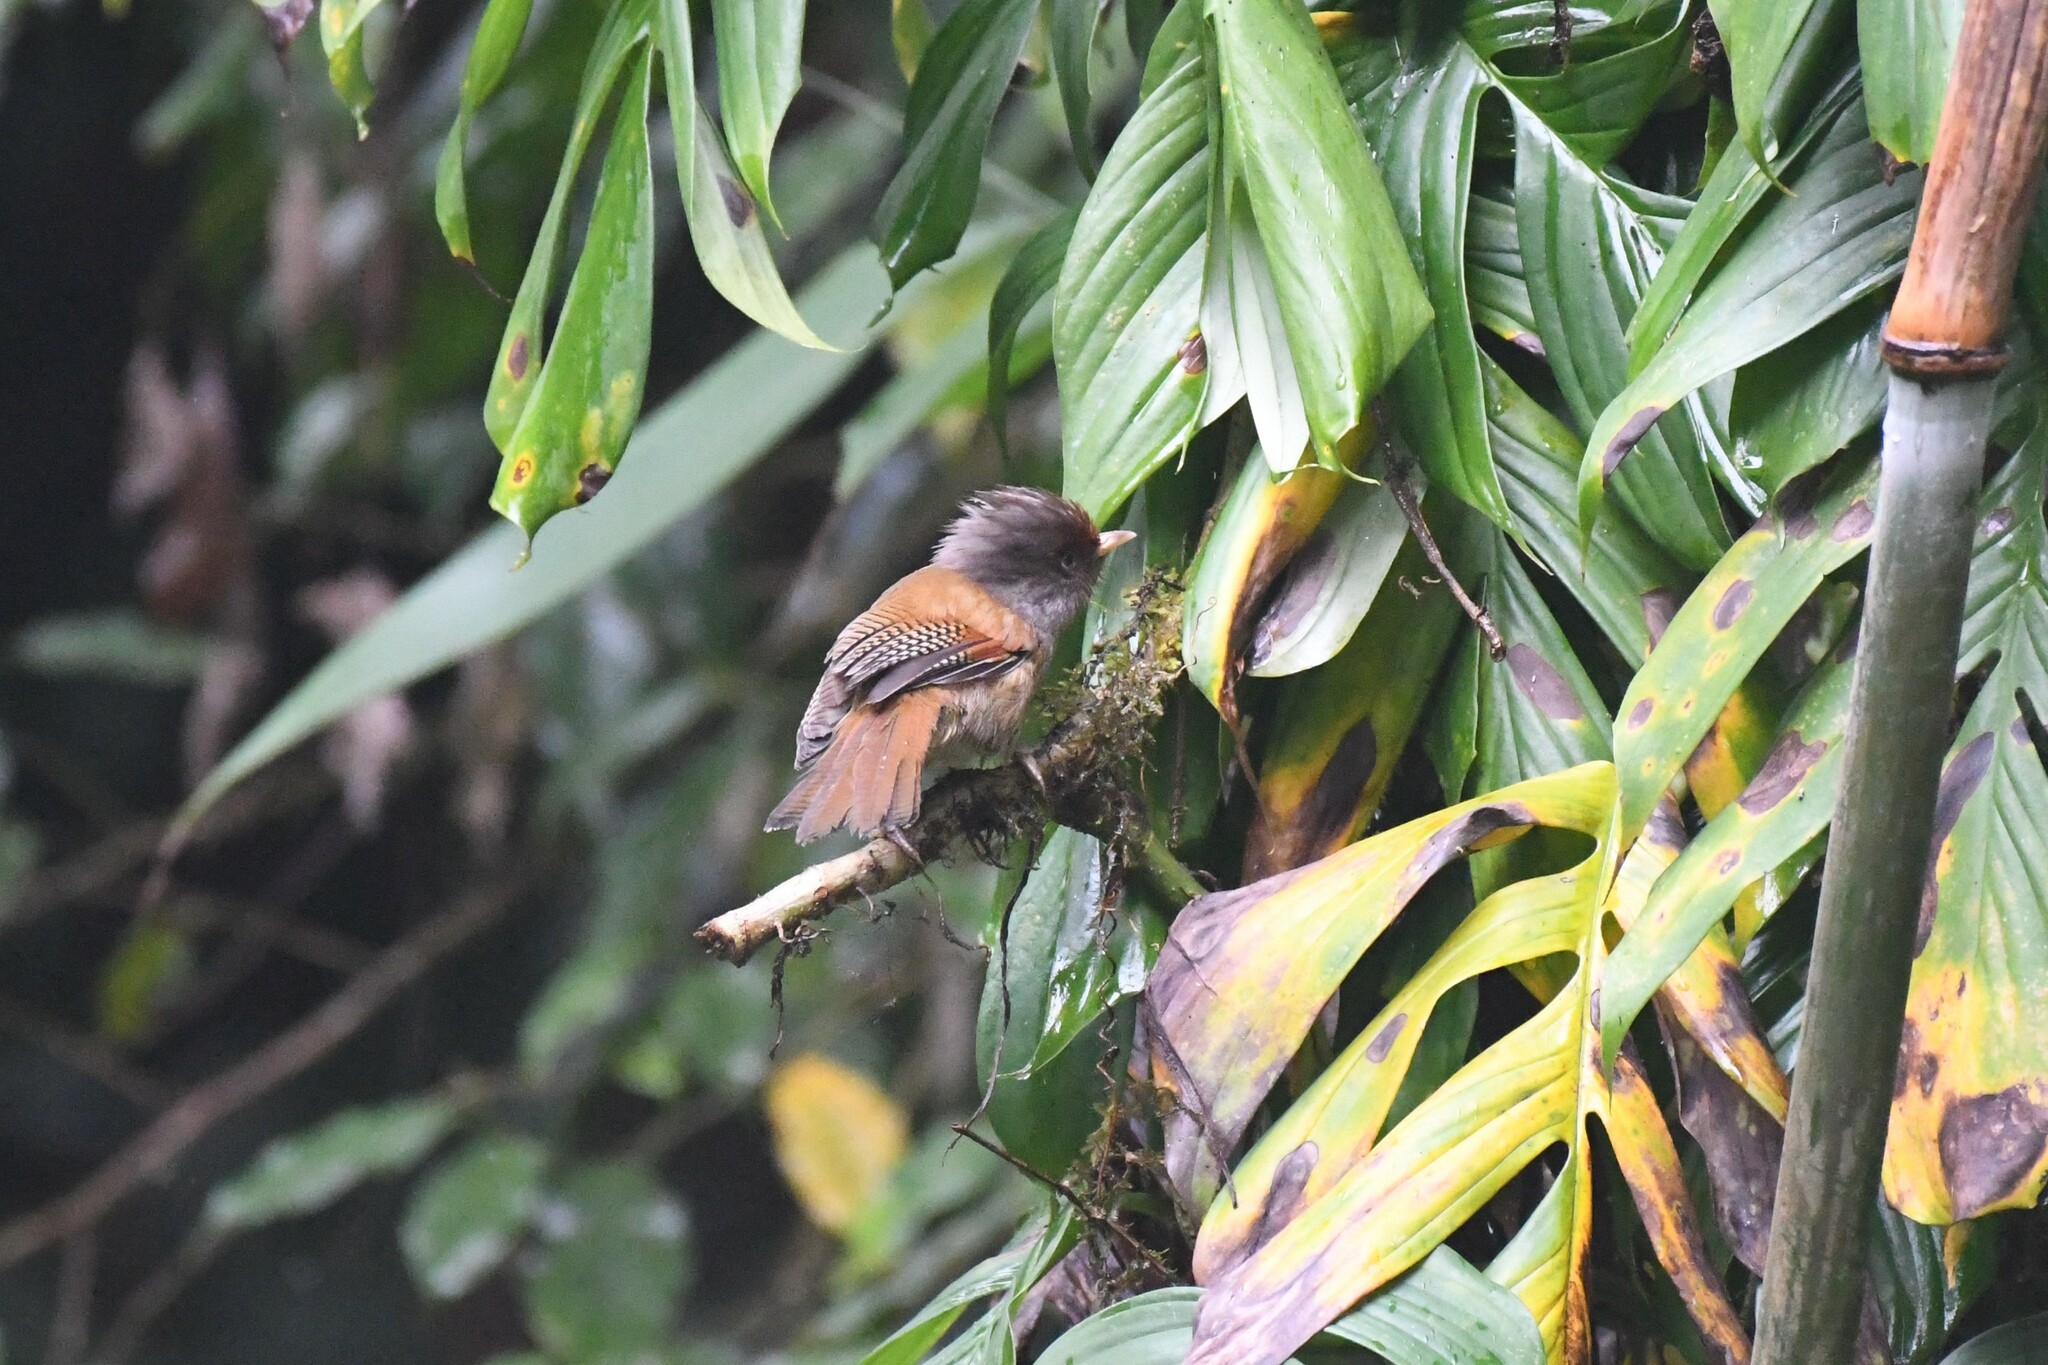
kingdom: Animalia
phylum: Chordata
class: Aves
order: Passeriformes
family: Leiothrichidae
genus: Actinodura
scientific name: Actinodura egertoni
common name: Rusty-fronted barwing
